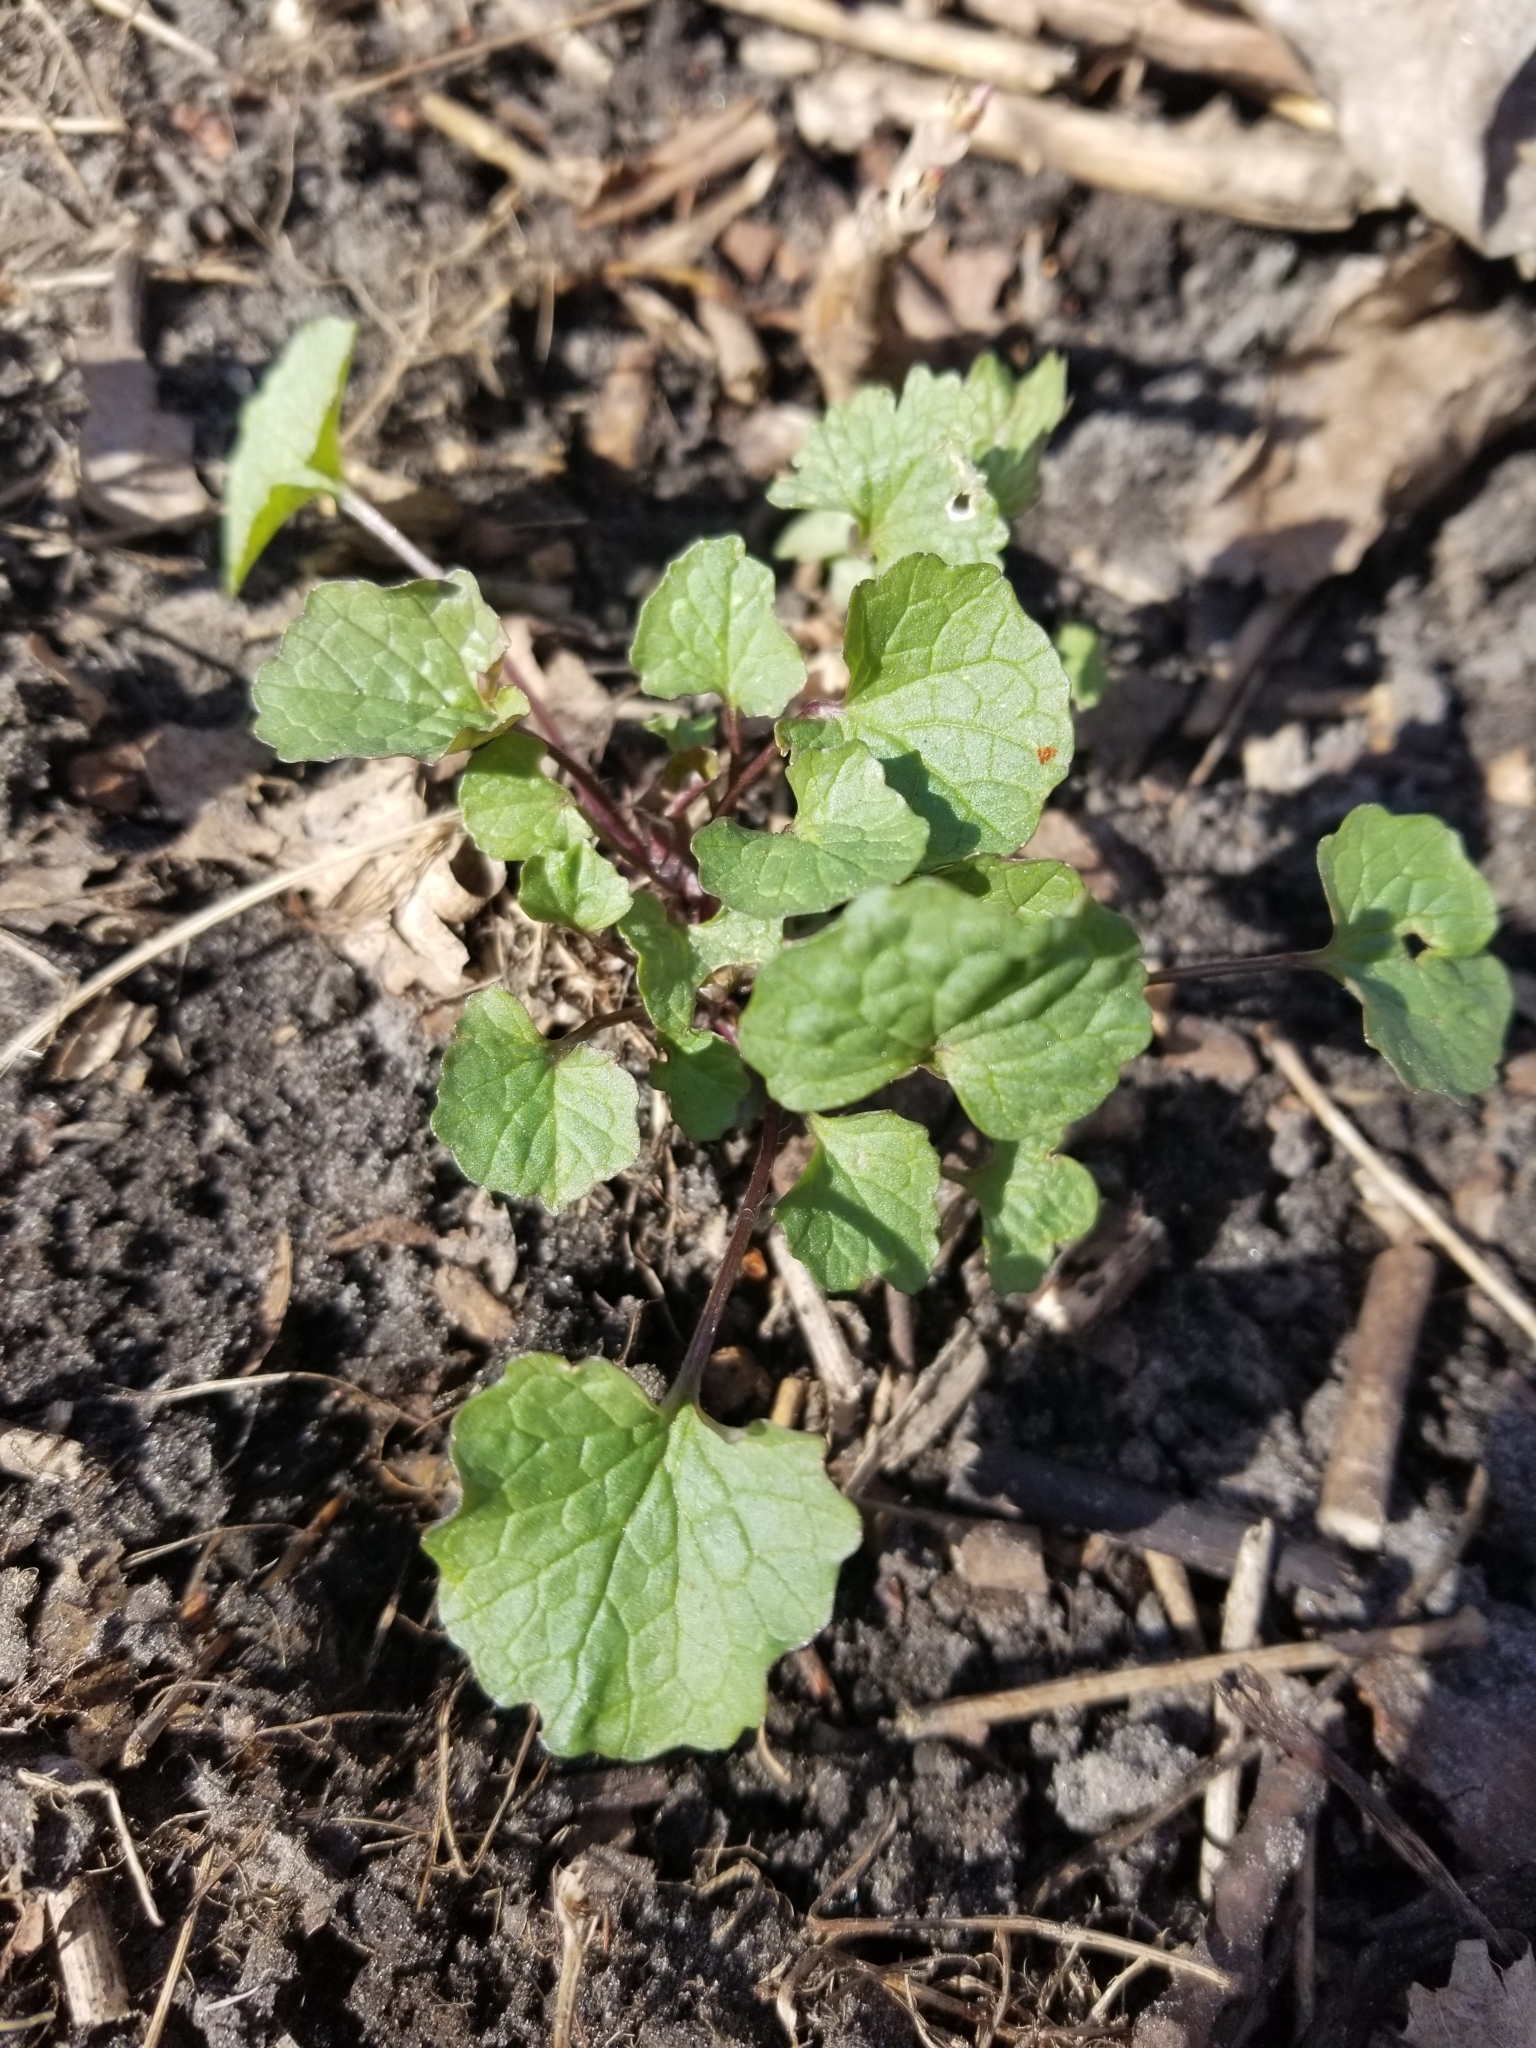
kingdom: Plantae
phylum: Tracheophyta
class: Magnoliopsida
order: Brassicales
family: Brassicaceae
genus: Alliaria
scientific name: Alliaria petiolata
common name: Garlic mustard
